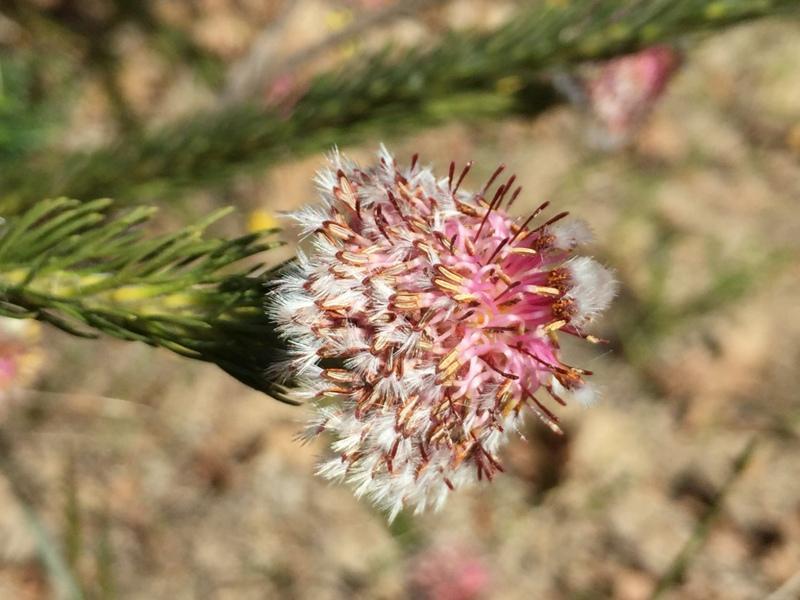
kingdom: Plantae
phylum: Tracheophyta
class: Magnoliopsida
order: Proteales
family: Proteaceae
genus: Serruria
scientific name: Serruria trilopha
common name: Trident spiderhead
